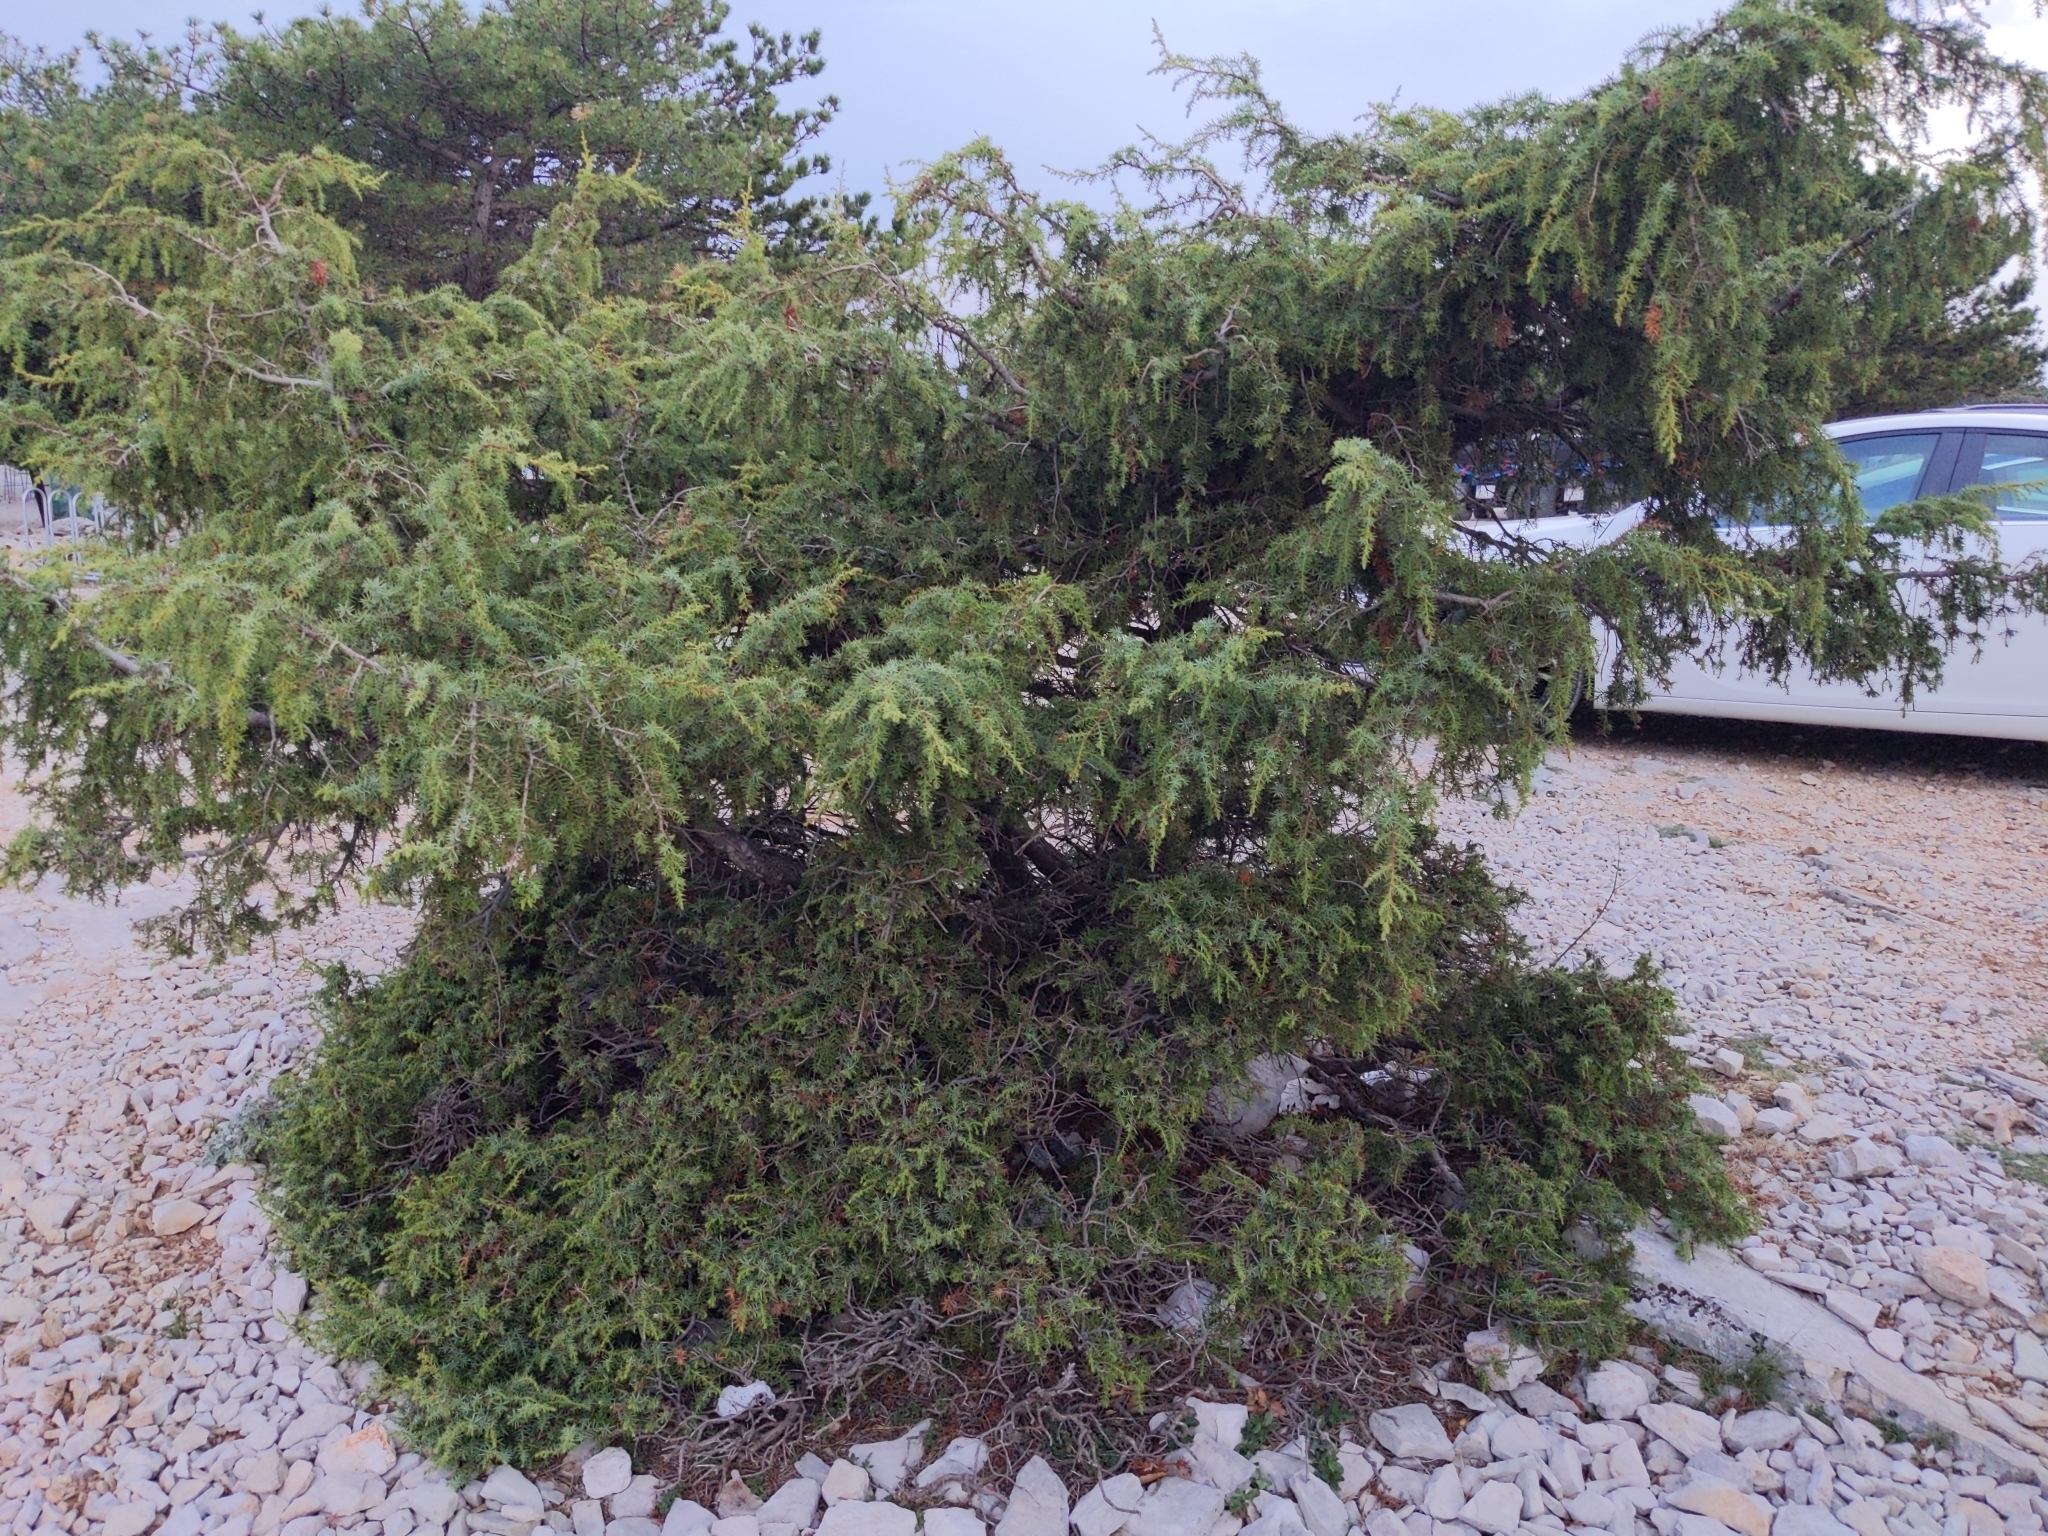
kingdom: Plantae
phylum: Tracheophyta
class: Pinopsida
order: Pinales
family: Cupressaceae
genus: Juniperus
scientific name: Juniperus oxycedrus
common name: Prickly juniper
